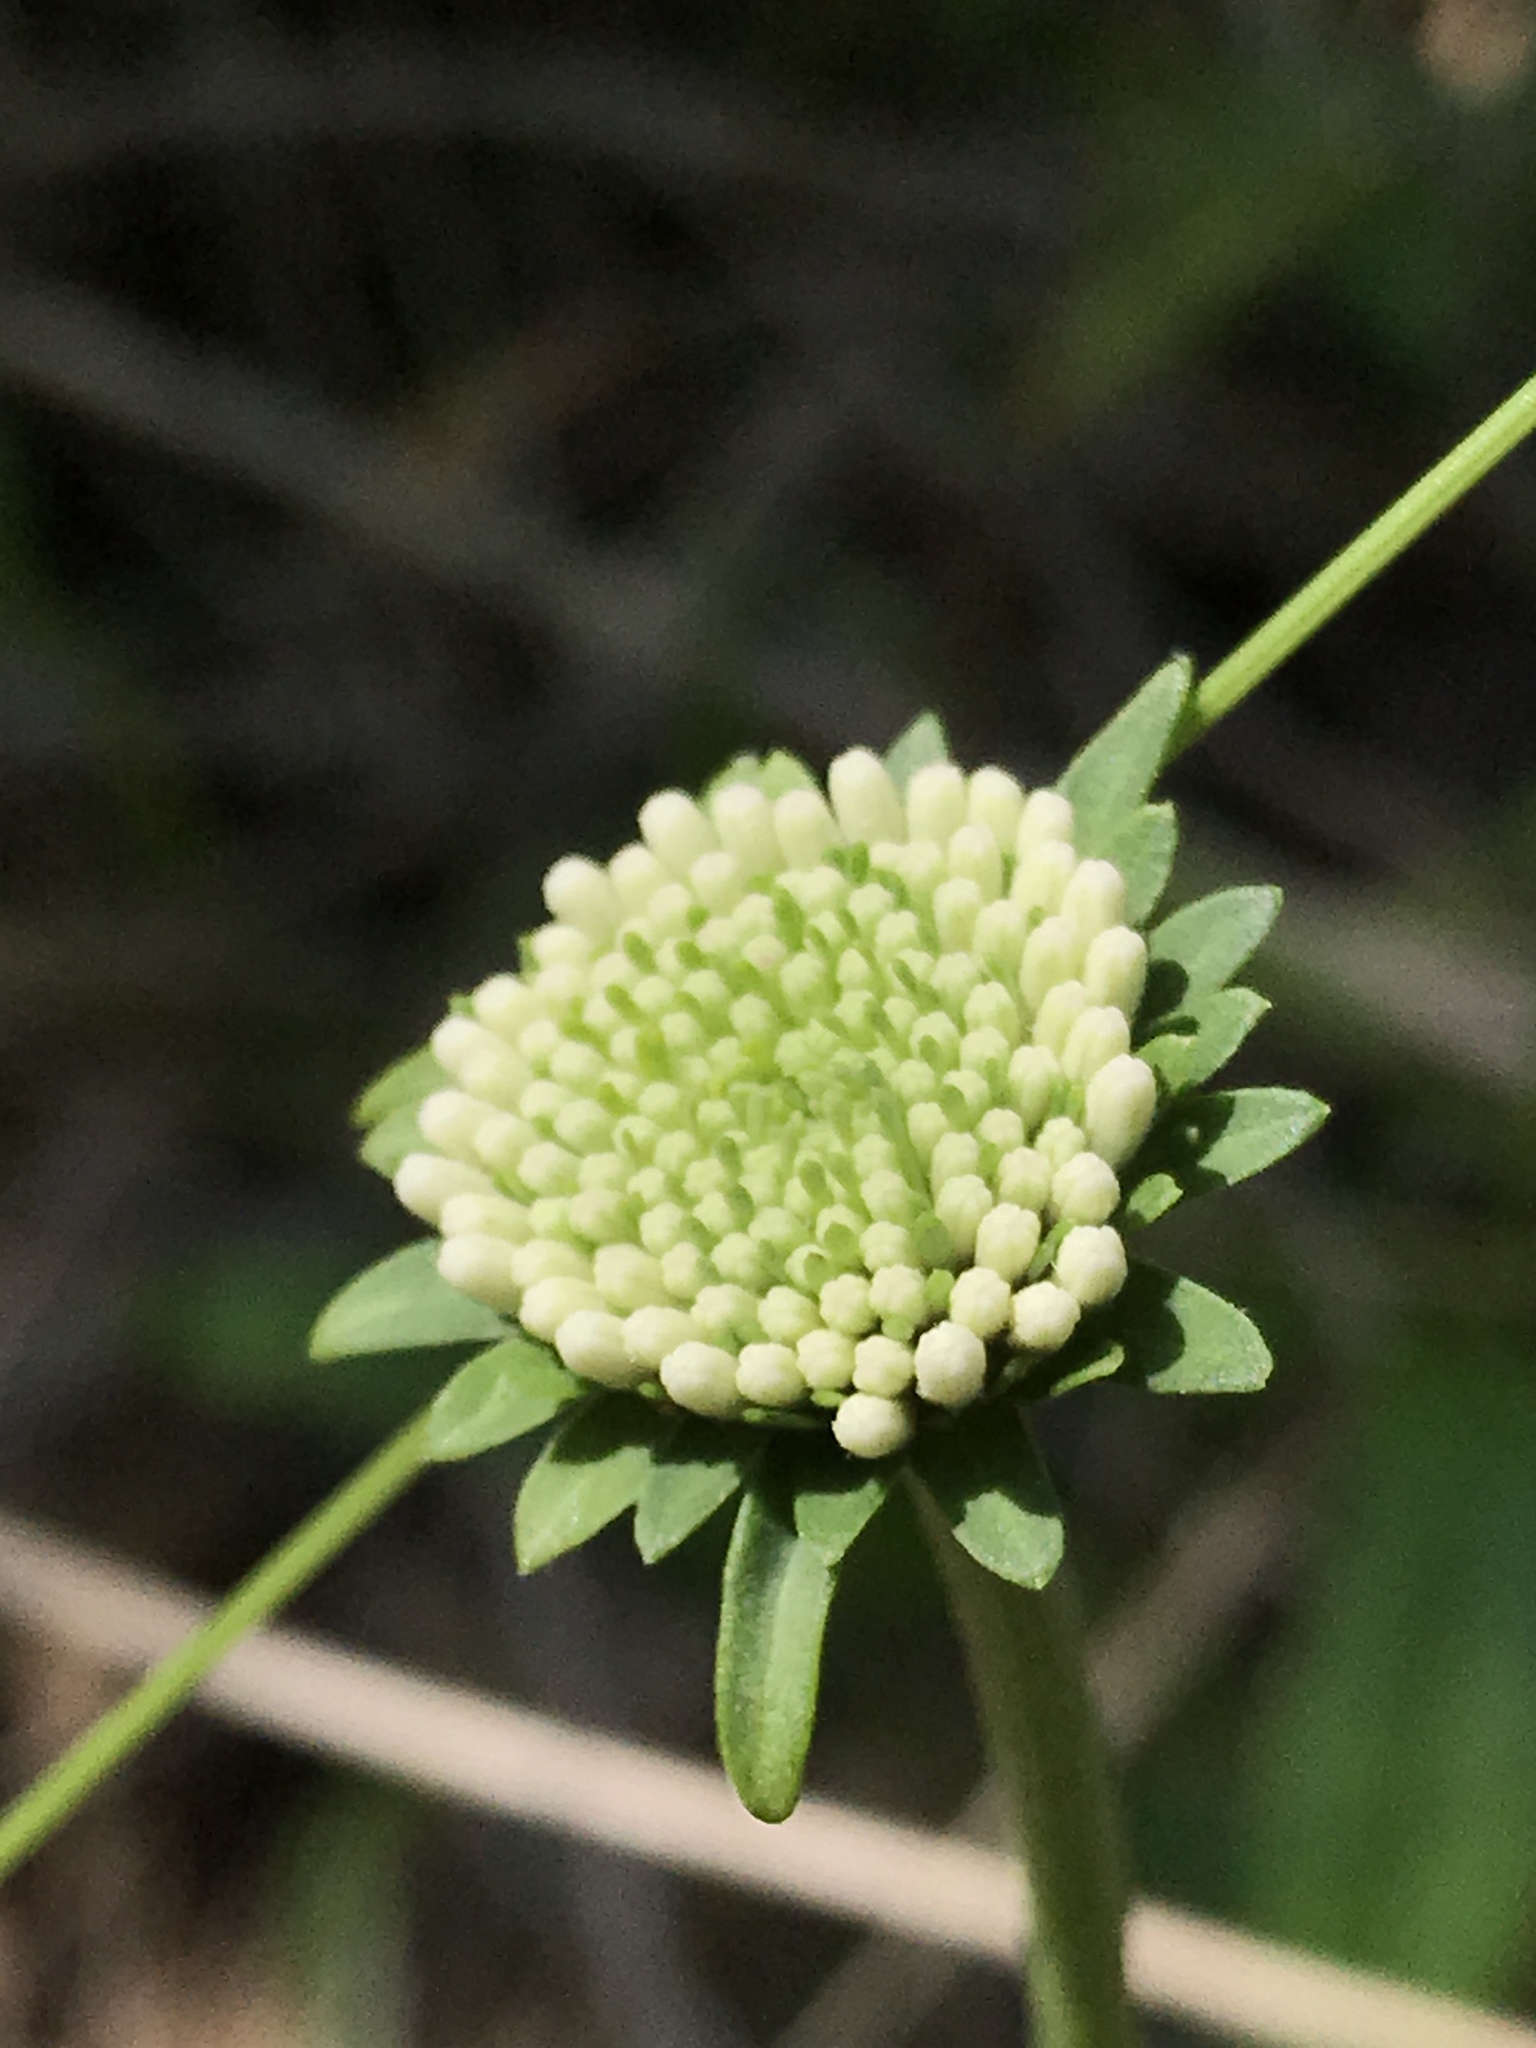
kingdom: Plantae
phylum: Tracheophyta
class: Magnoliopsida
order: Asterales
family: Asteraceae
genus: Marshallia
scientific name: Marshallia obovata
